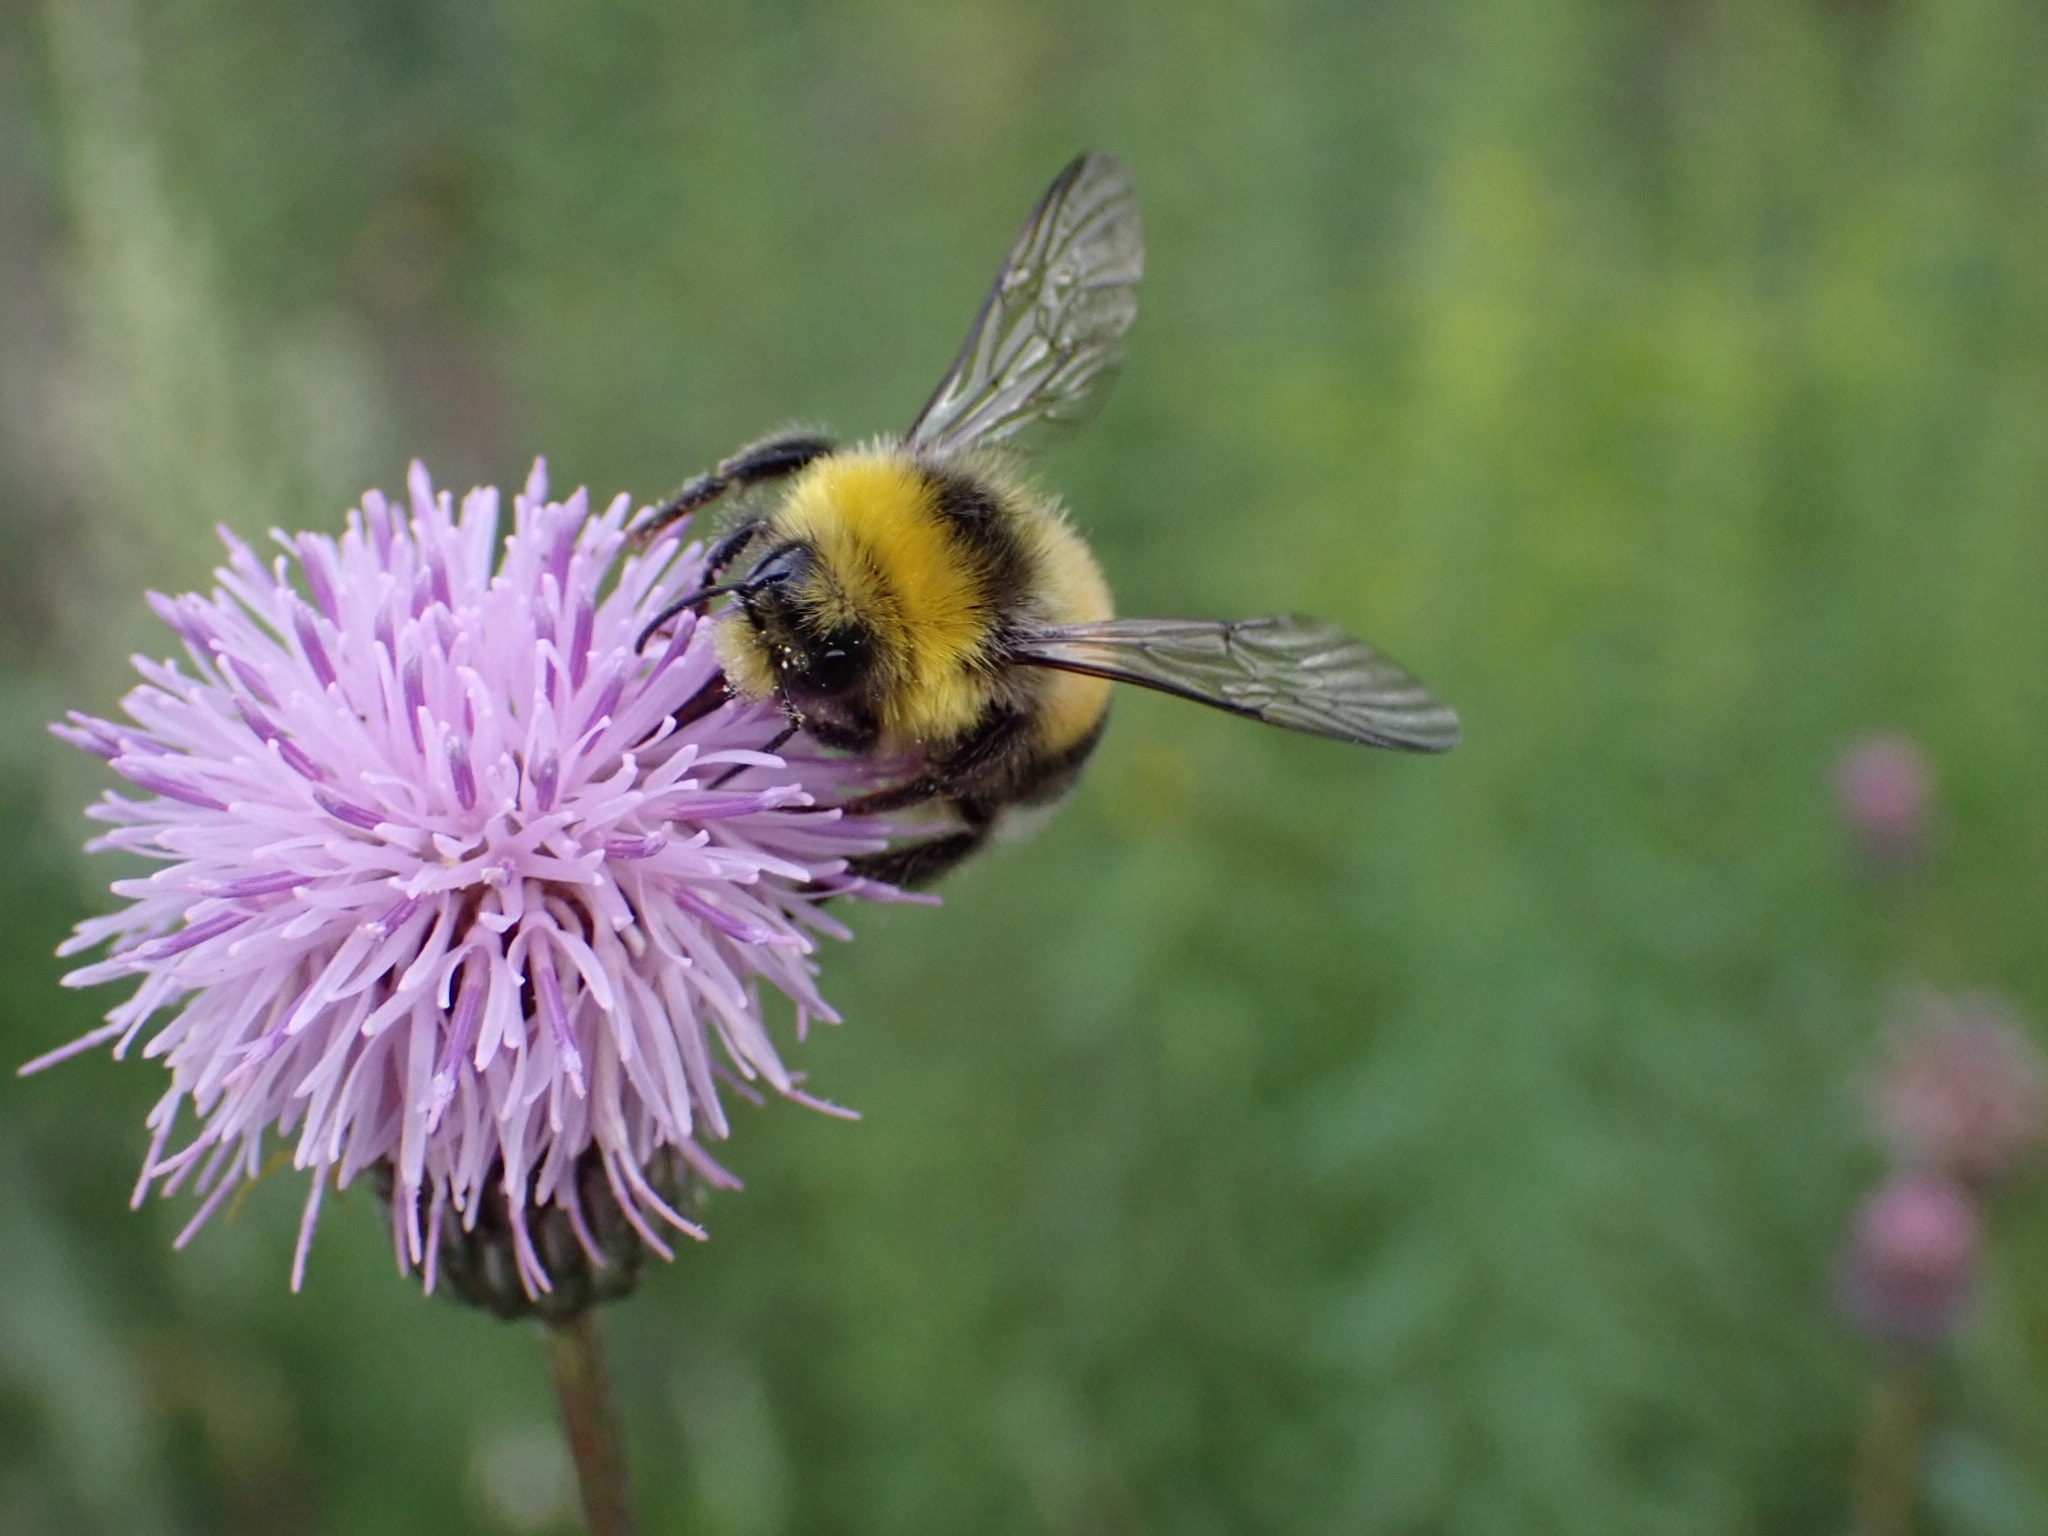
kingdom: Animalia
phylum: Arthropoda
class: Insecta
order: Hymenoptera
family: Apidae
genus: Bombus
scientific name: Bombus lucorum
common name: White-tailed bumblebee
